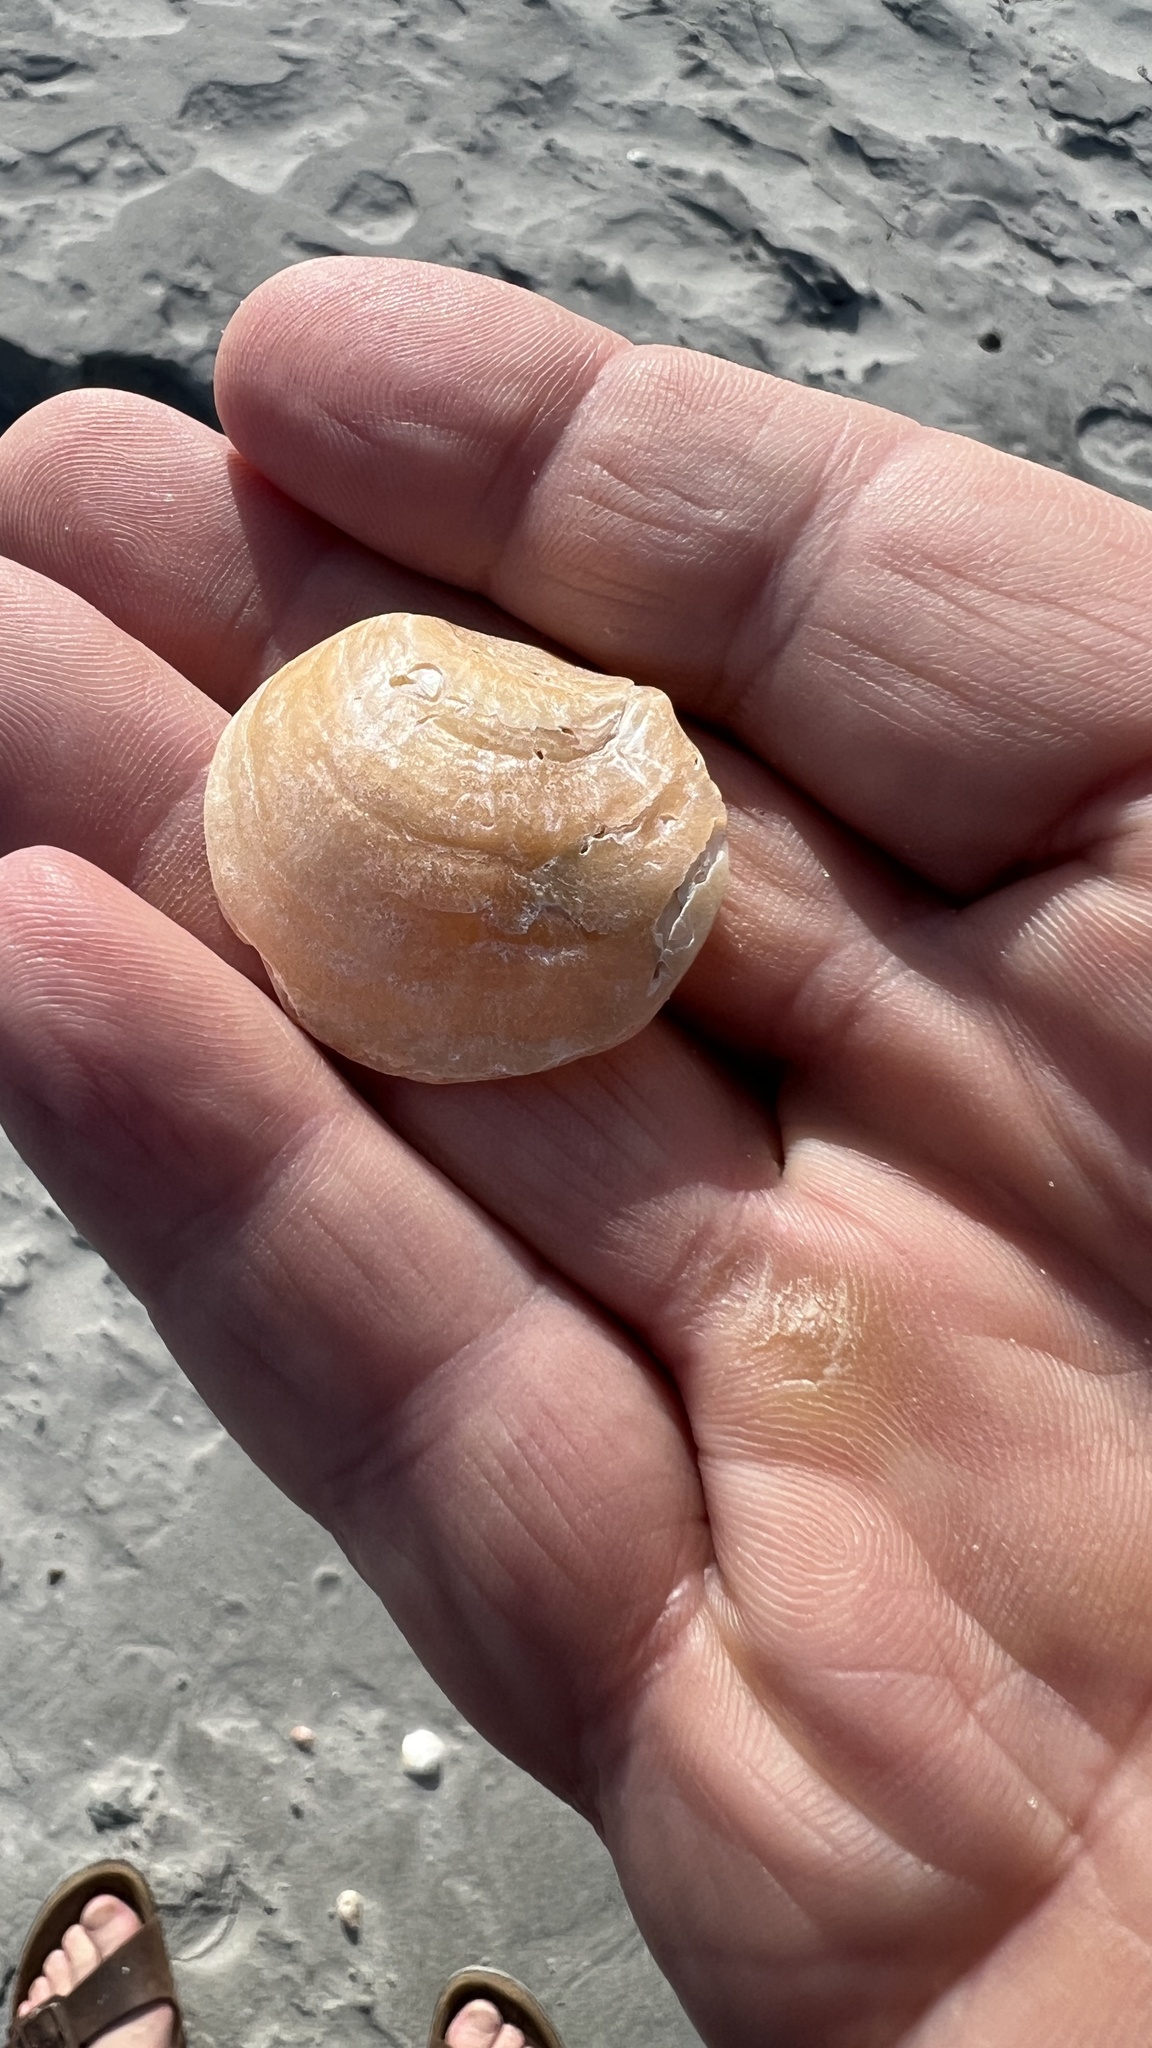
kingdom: Animalia
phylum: Mollusca
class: Bivalvia
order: Pectinida
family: Anomiidae
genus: Anomia
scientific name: Anomia simplex
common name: Common jingle shell
